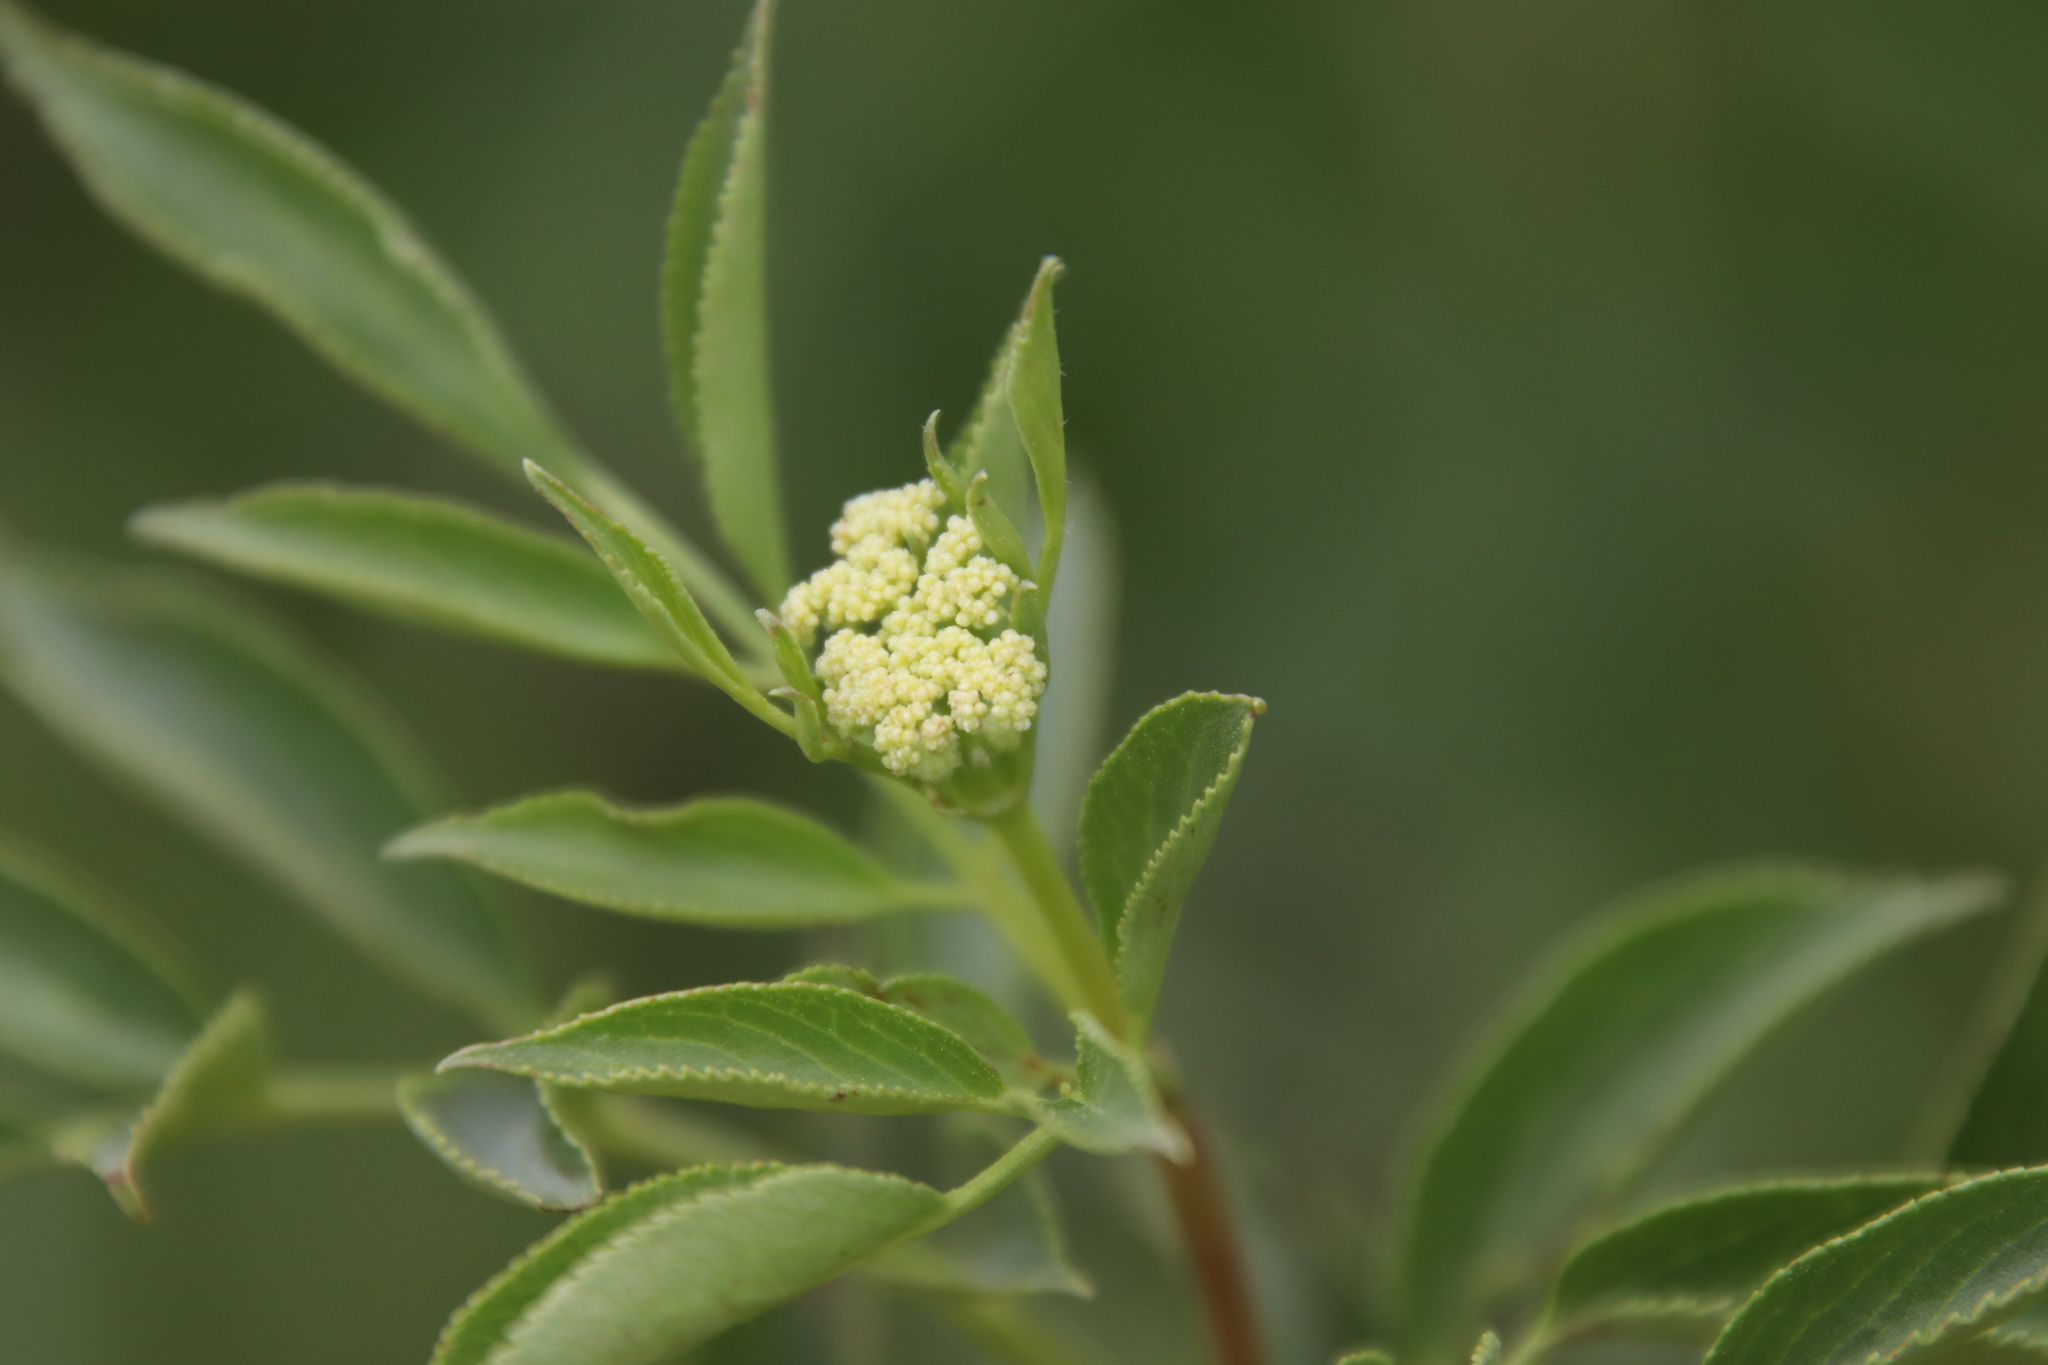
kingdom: Plantae
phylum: Tracheophyta
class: Magnoliopsida
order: Dipsacales
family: Viburnaceae
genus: Sambucus
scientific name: Sambucus cerulea
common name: Blue elder
